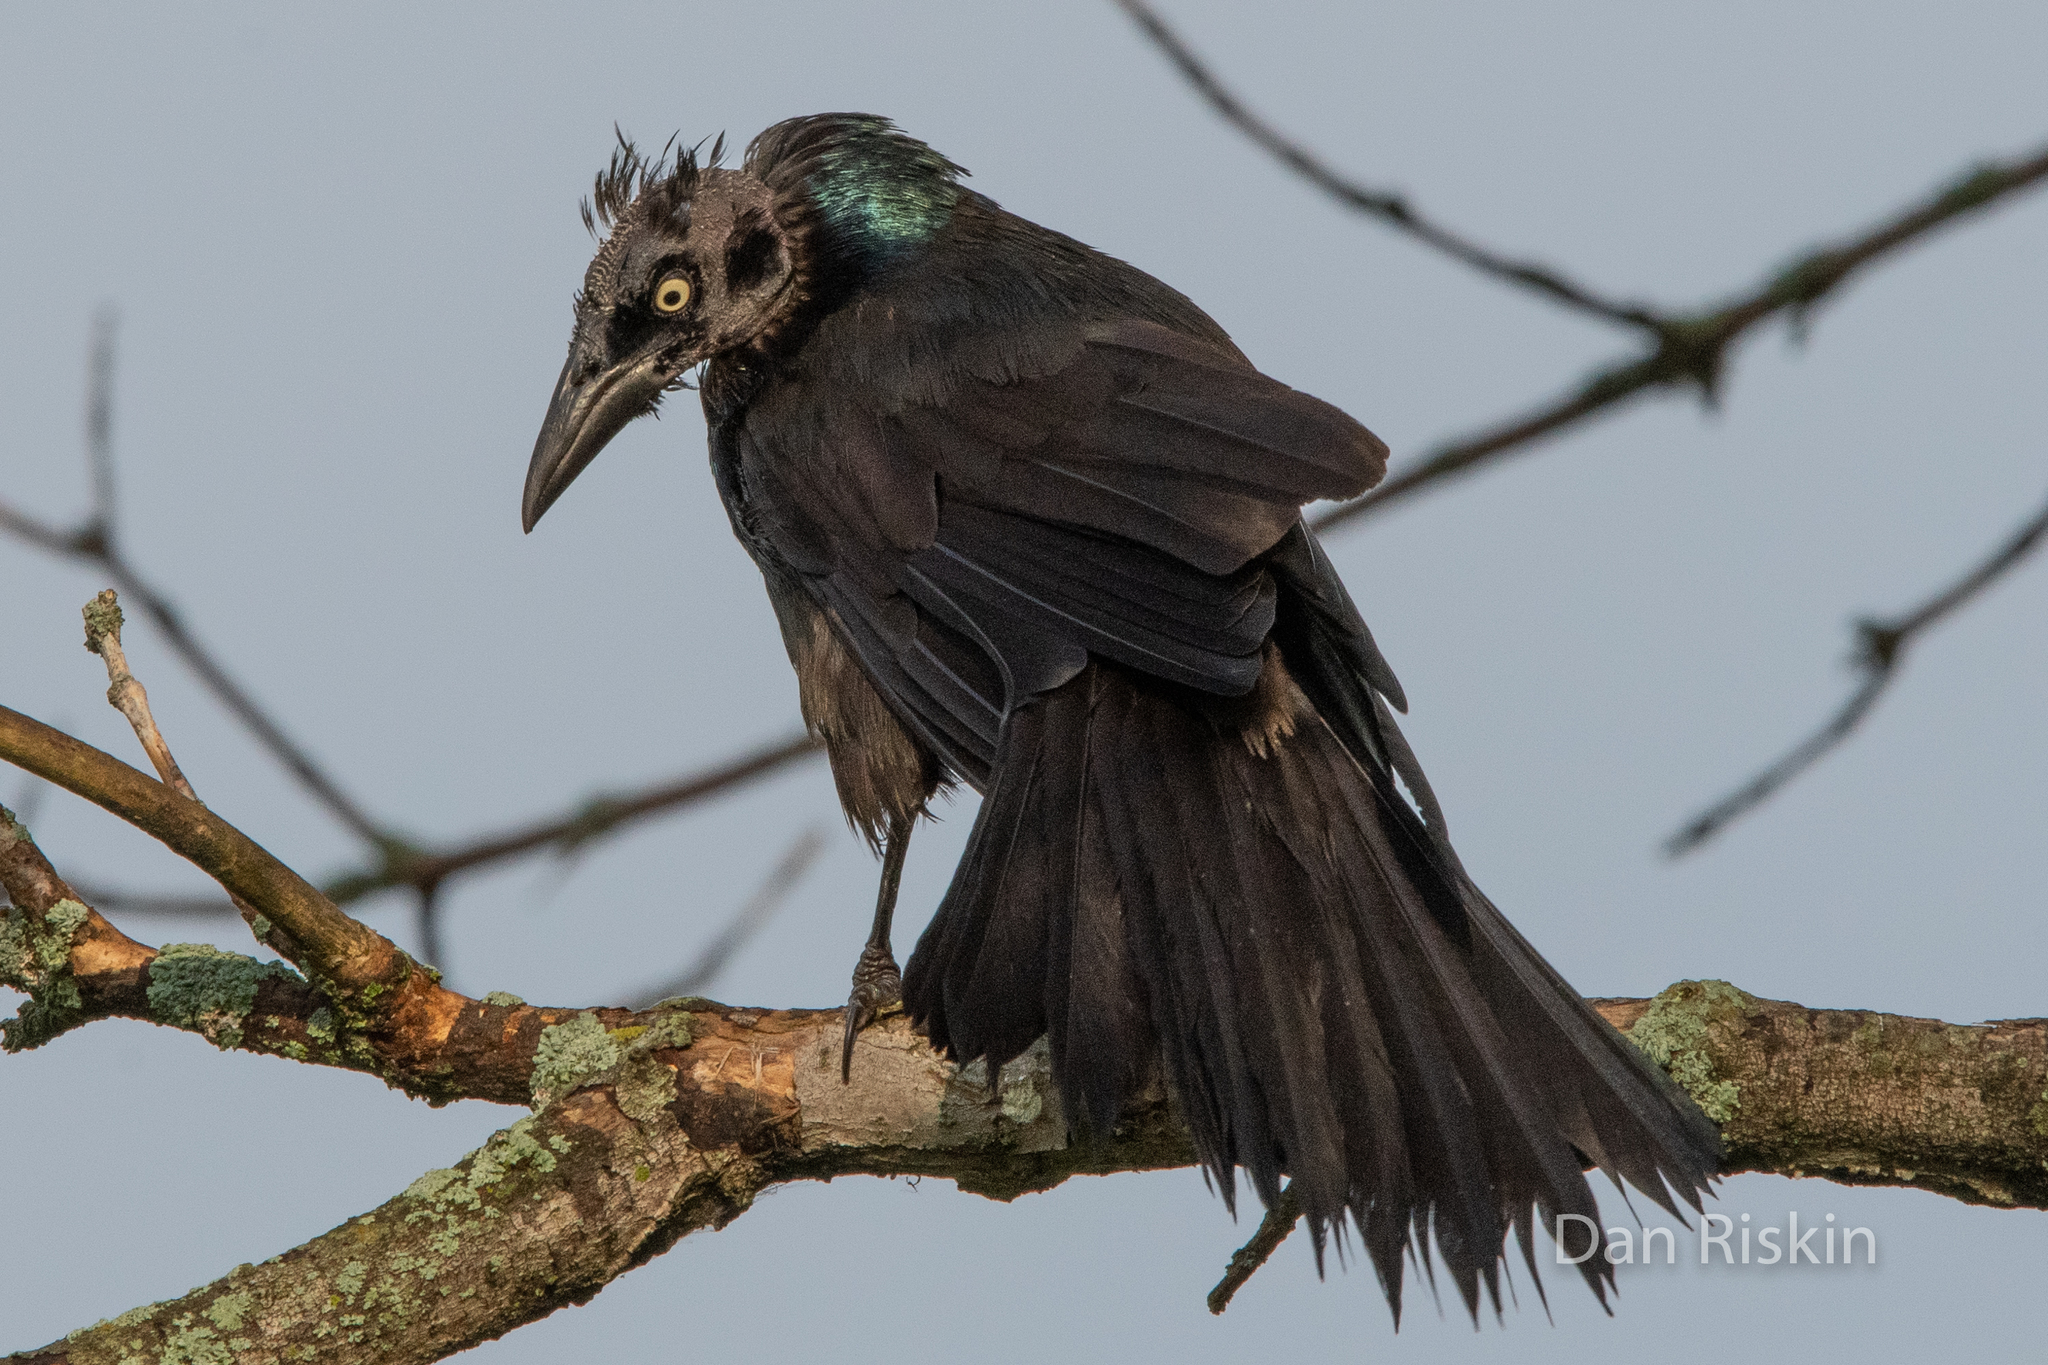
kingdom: Animalia
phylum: Chordata
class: Aves
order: Passeriformes
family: Icteridae
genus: Quiscalus
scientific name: Quiscalus quiscula
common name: Common grackle
